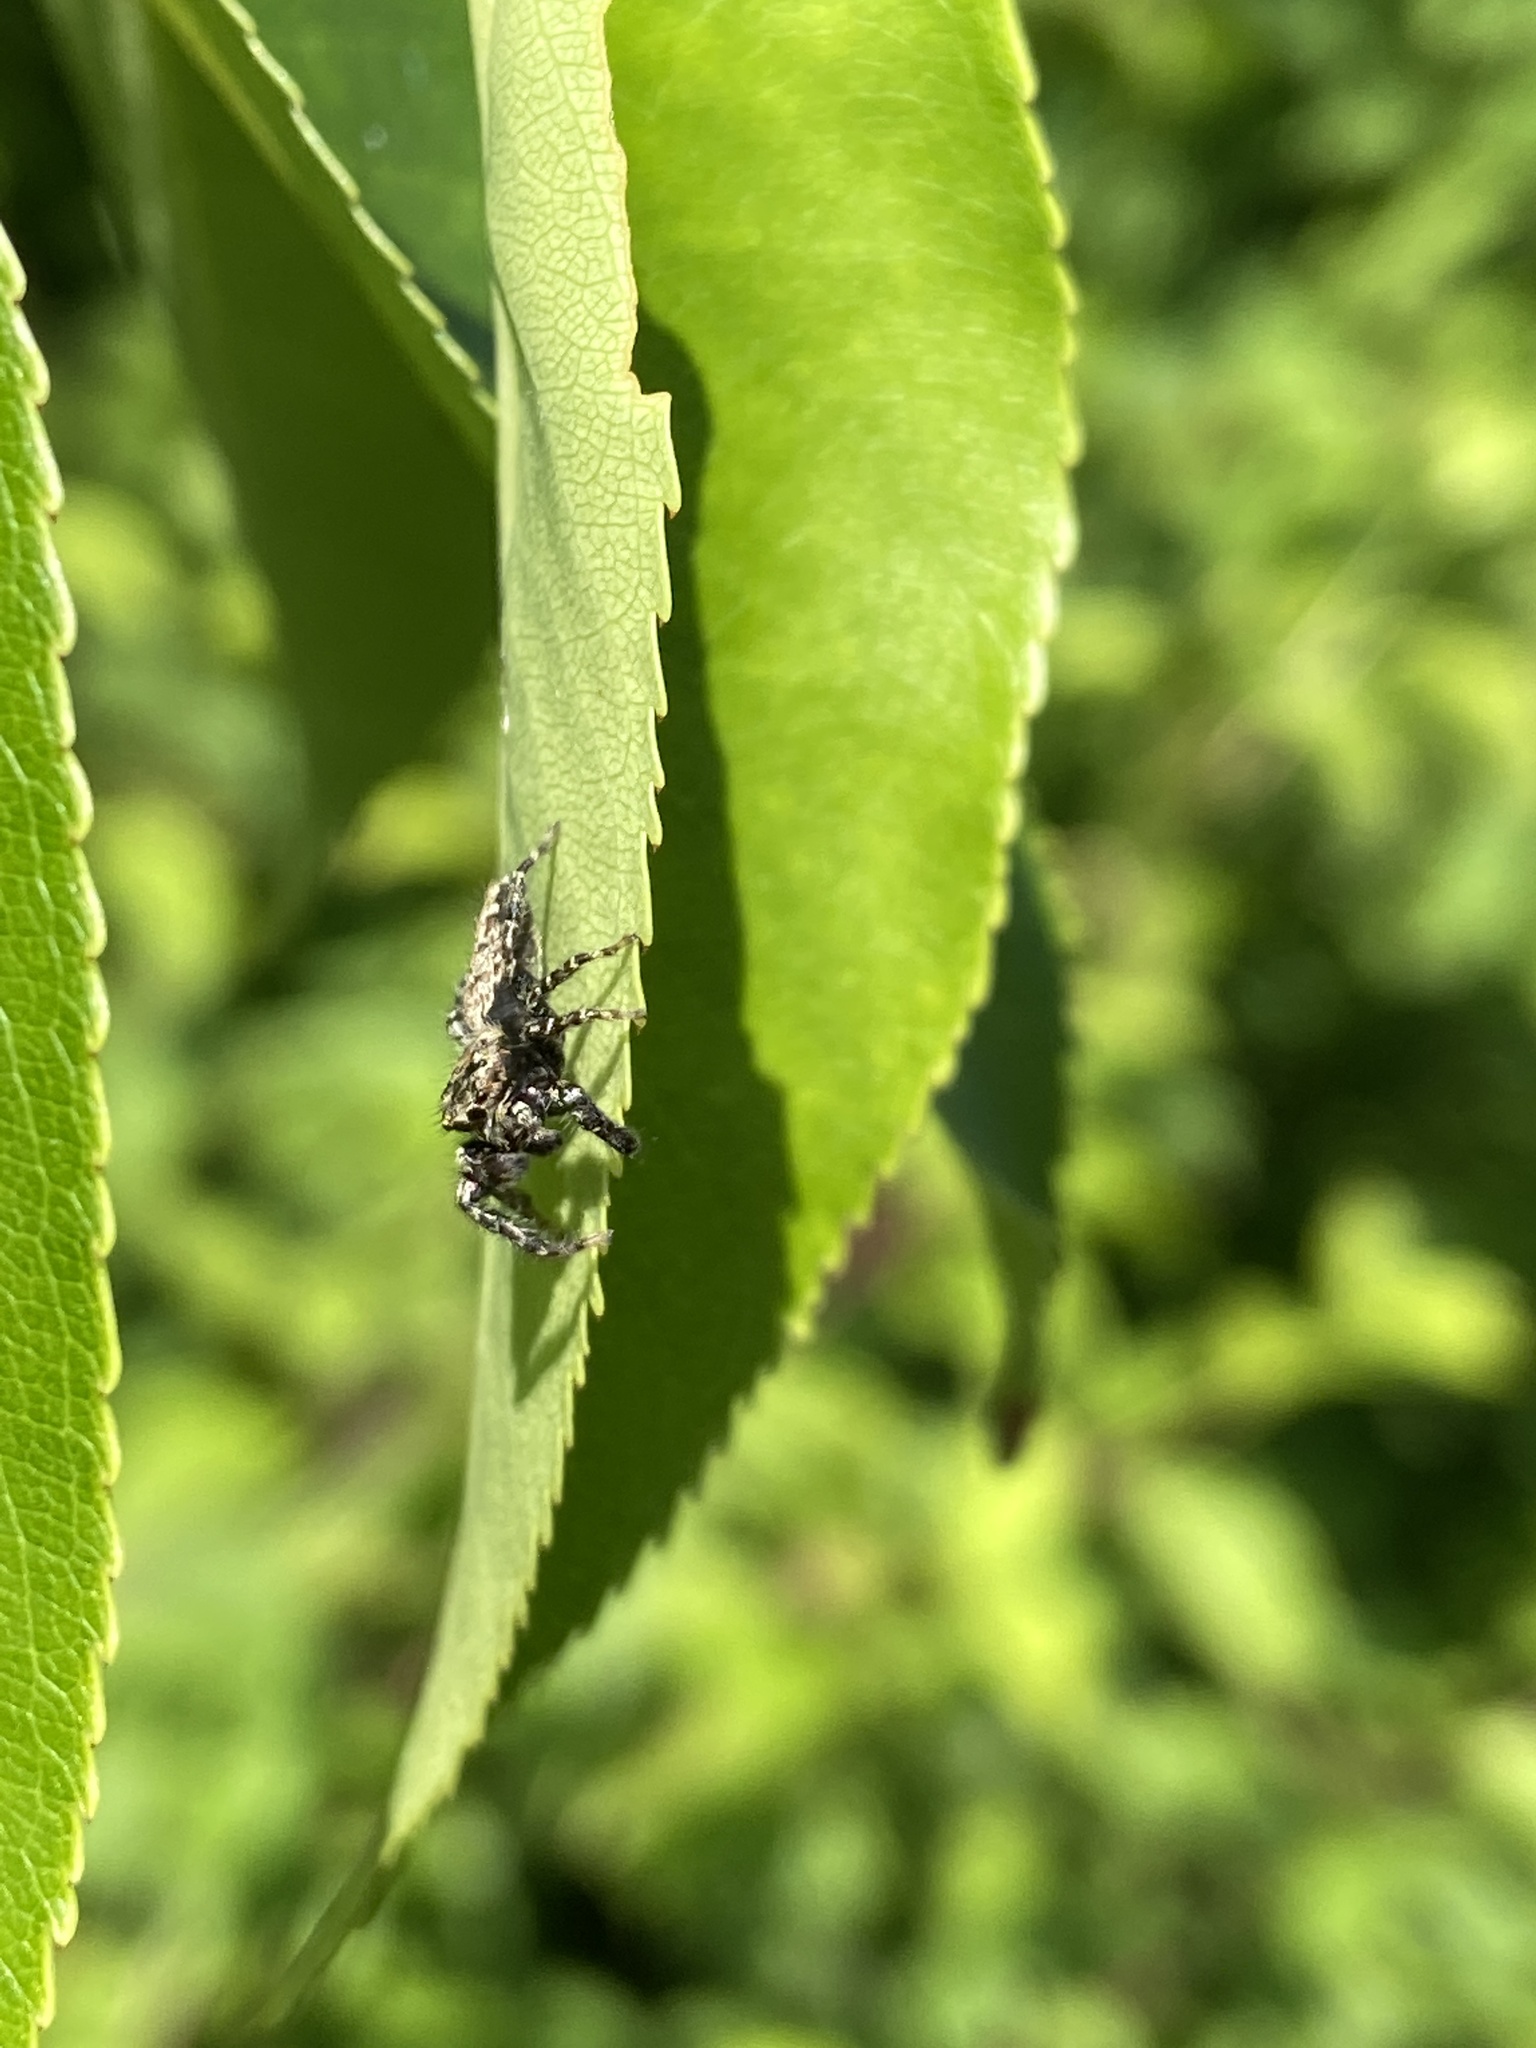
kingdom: Animalia
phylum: Arthropoda
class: Arachnida
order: Araneae
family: Salticidae
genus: Marpissa
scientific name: Marpissa muscosa
